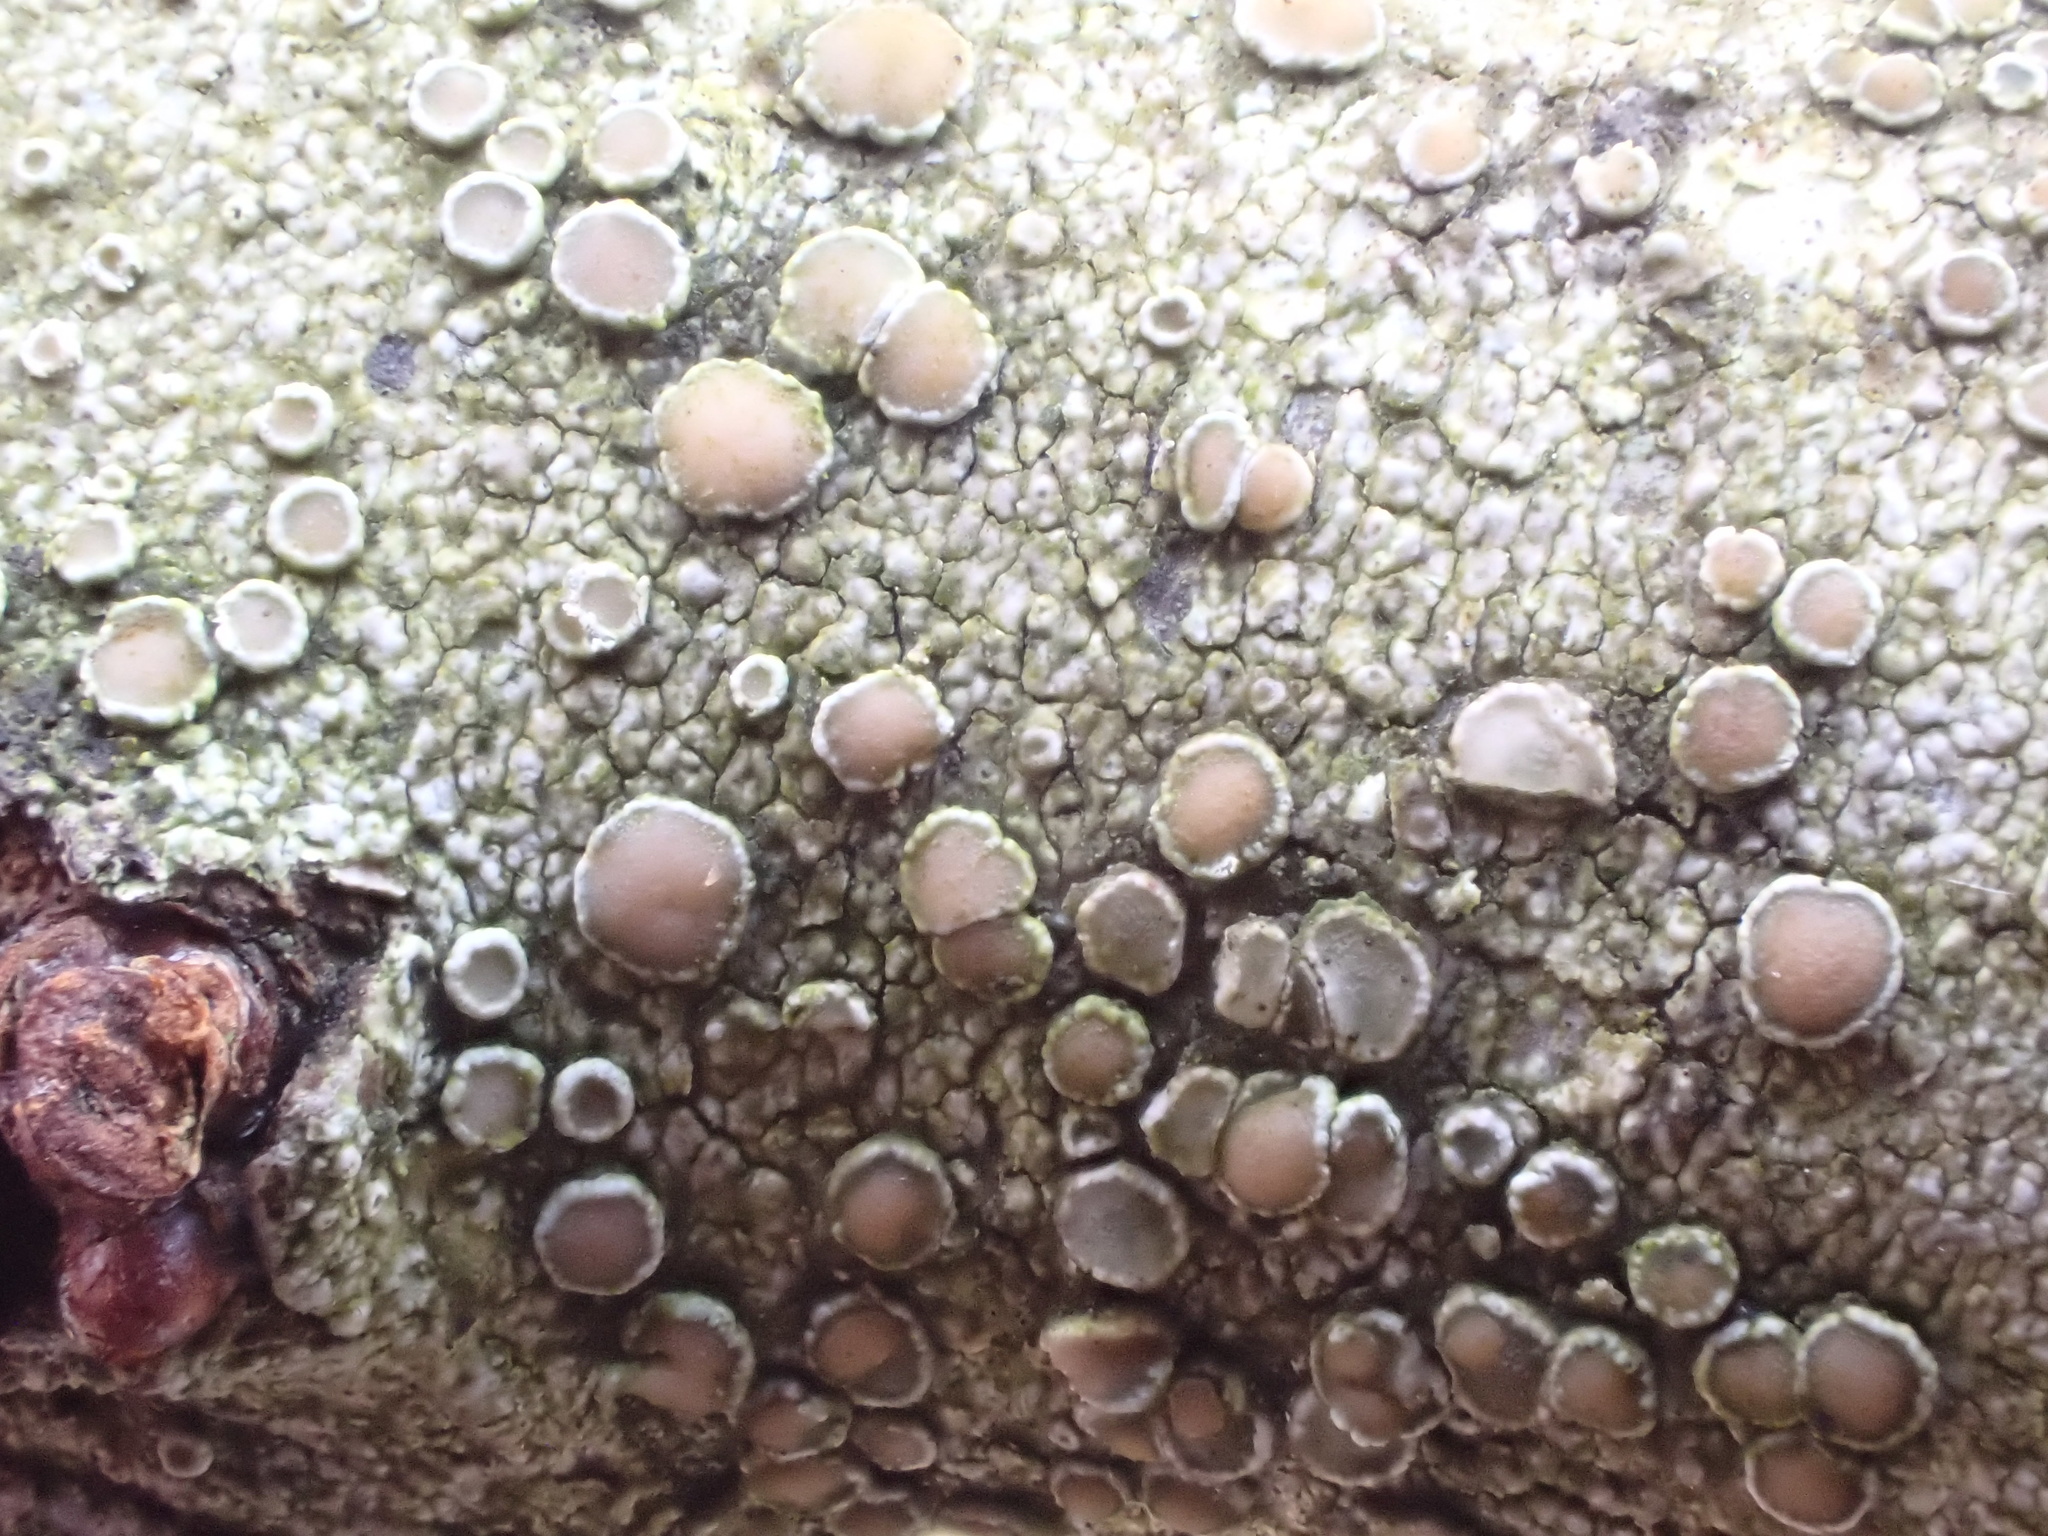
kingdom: Fungi
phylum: Ascomycota
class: Lecanoromycetes
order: Lecanorales
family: Lecanoraceae
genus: Lecanora
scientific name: Lecanora chlarotera
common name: Brown rim-lichen
